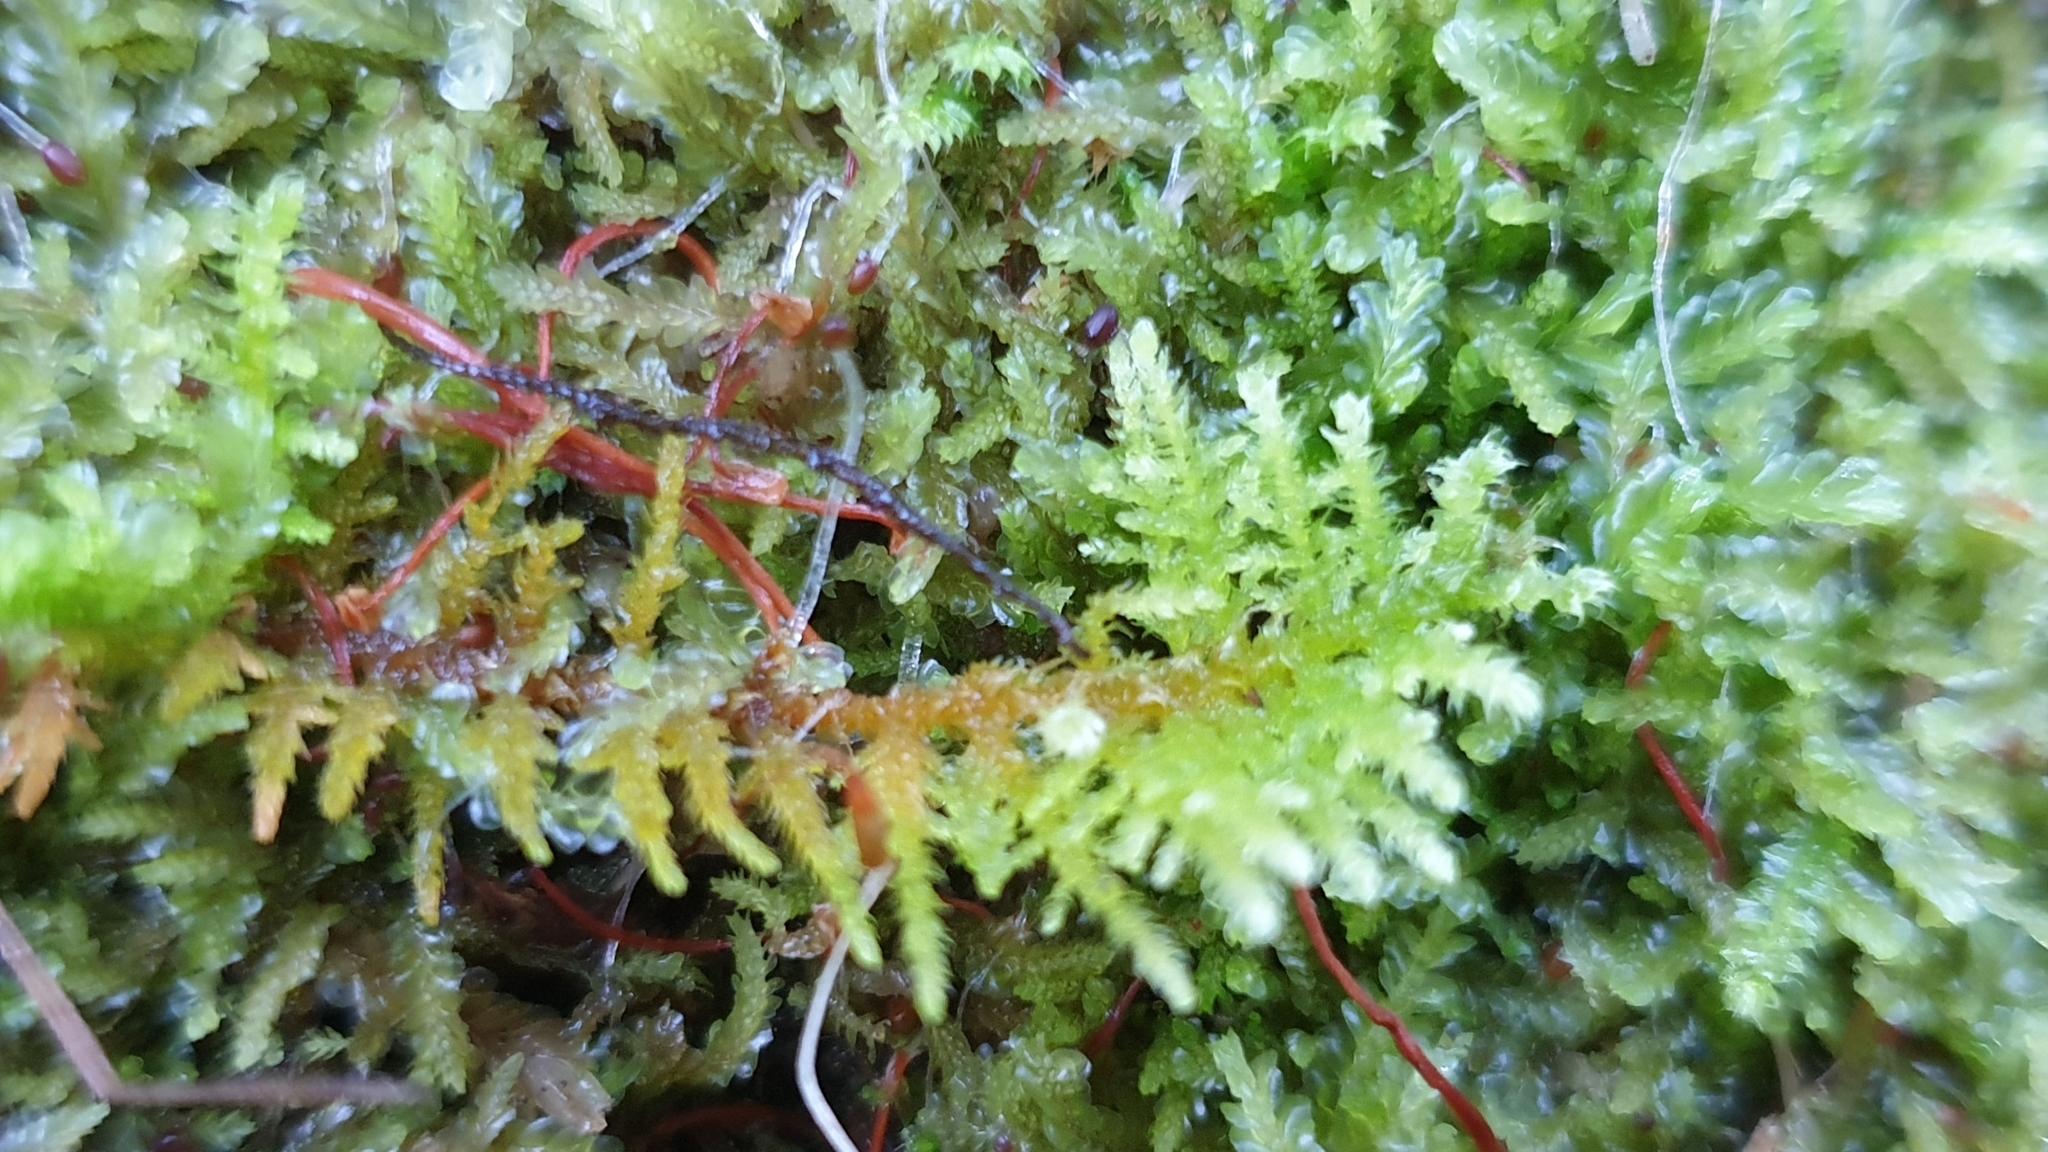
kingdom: Plantae
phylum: Bryophyta
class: Bryopsida
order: Hypnales
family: Thuidiaceae
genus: Thuidiopsis
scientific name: Thuidiopsis sparsa
